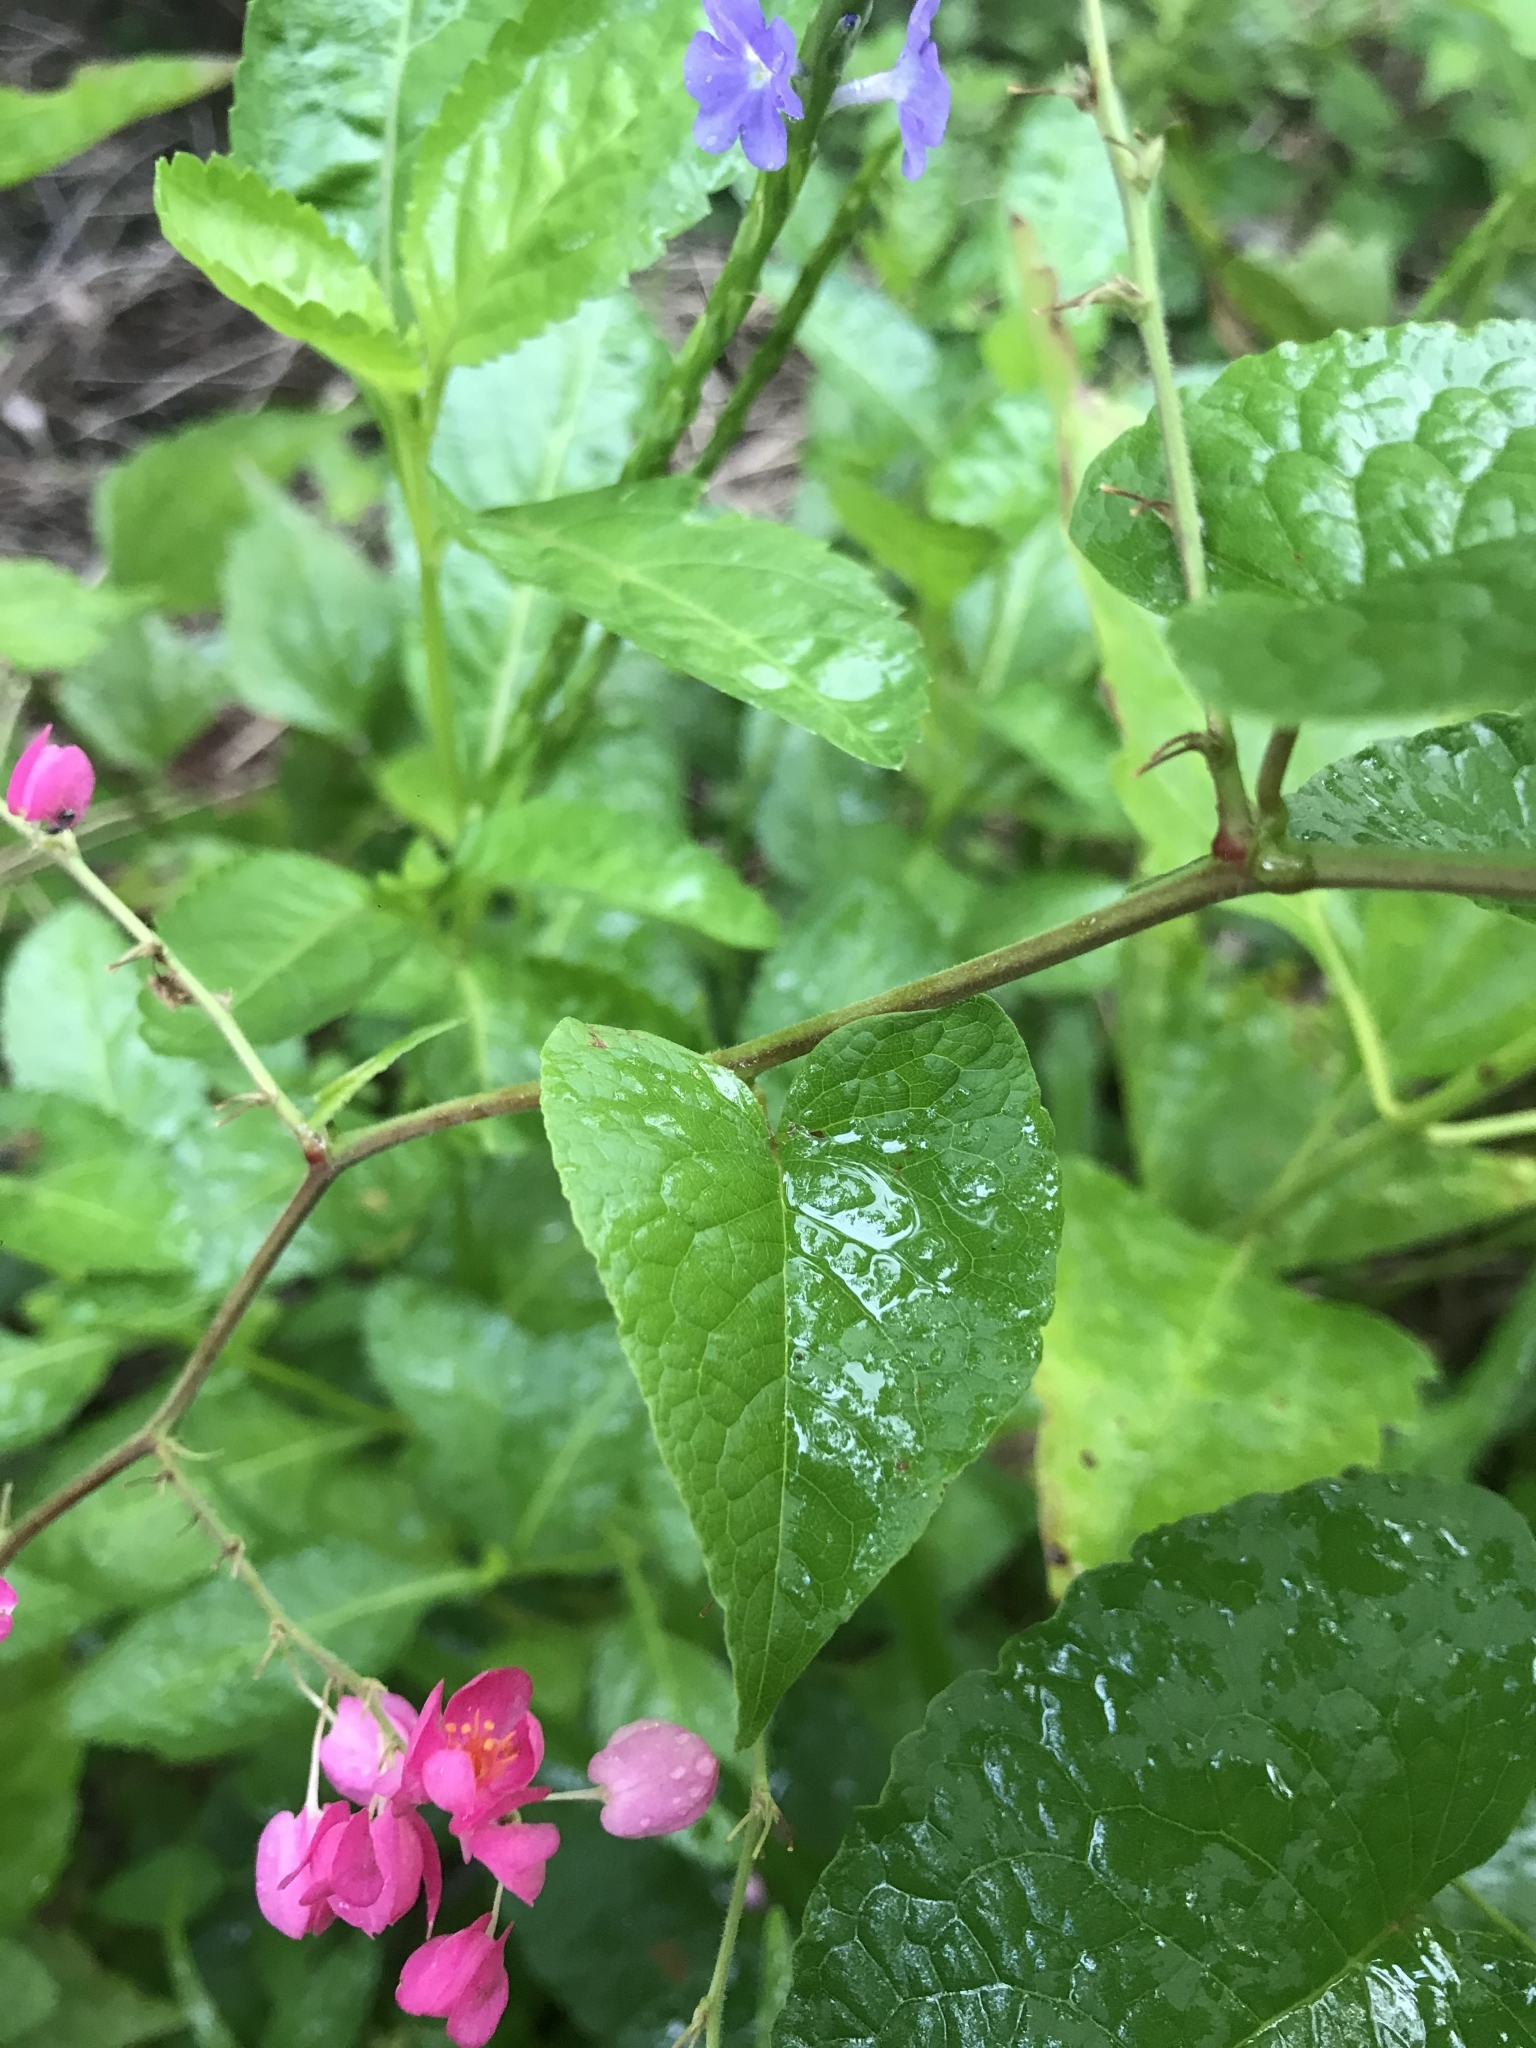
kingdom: Plantae
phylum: Tracheophyta
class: Magnoliopsida
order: Caryophyllales
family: Polygonaceae
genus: Antigonon
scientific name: Antigonon leptopus
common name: Coral vine
